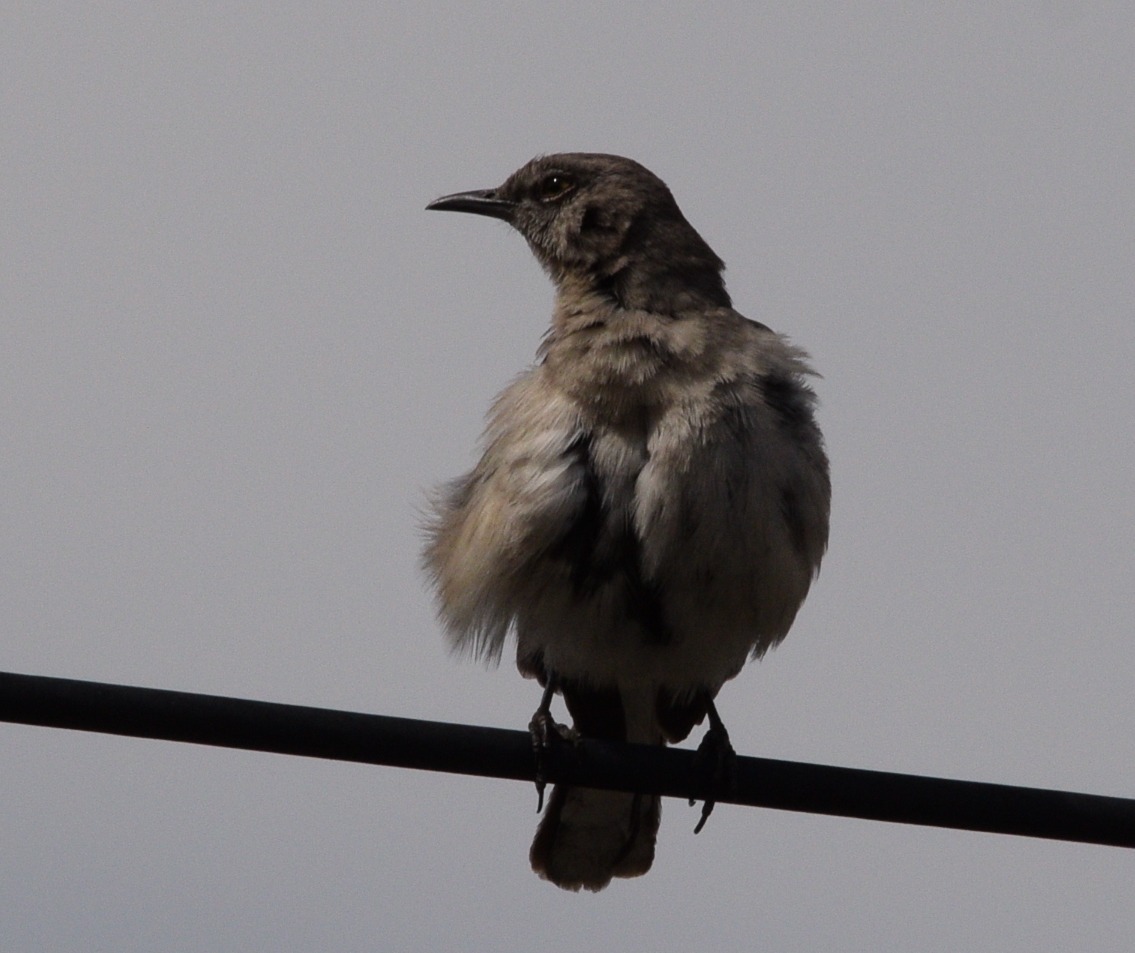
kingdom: Animalia
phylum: Chordata
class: Aves
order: Passeriformes
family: Mimidae
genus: Mimus
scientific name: Mimus polyglottos
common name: Northern mockingbird
